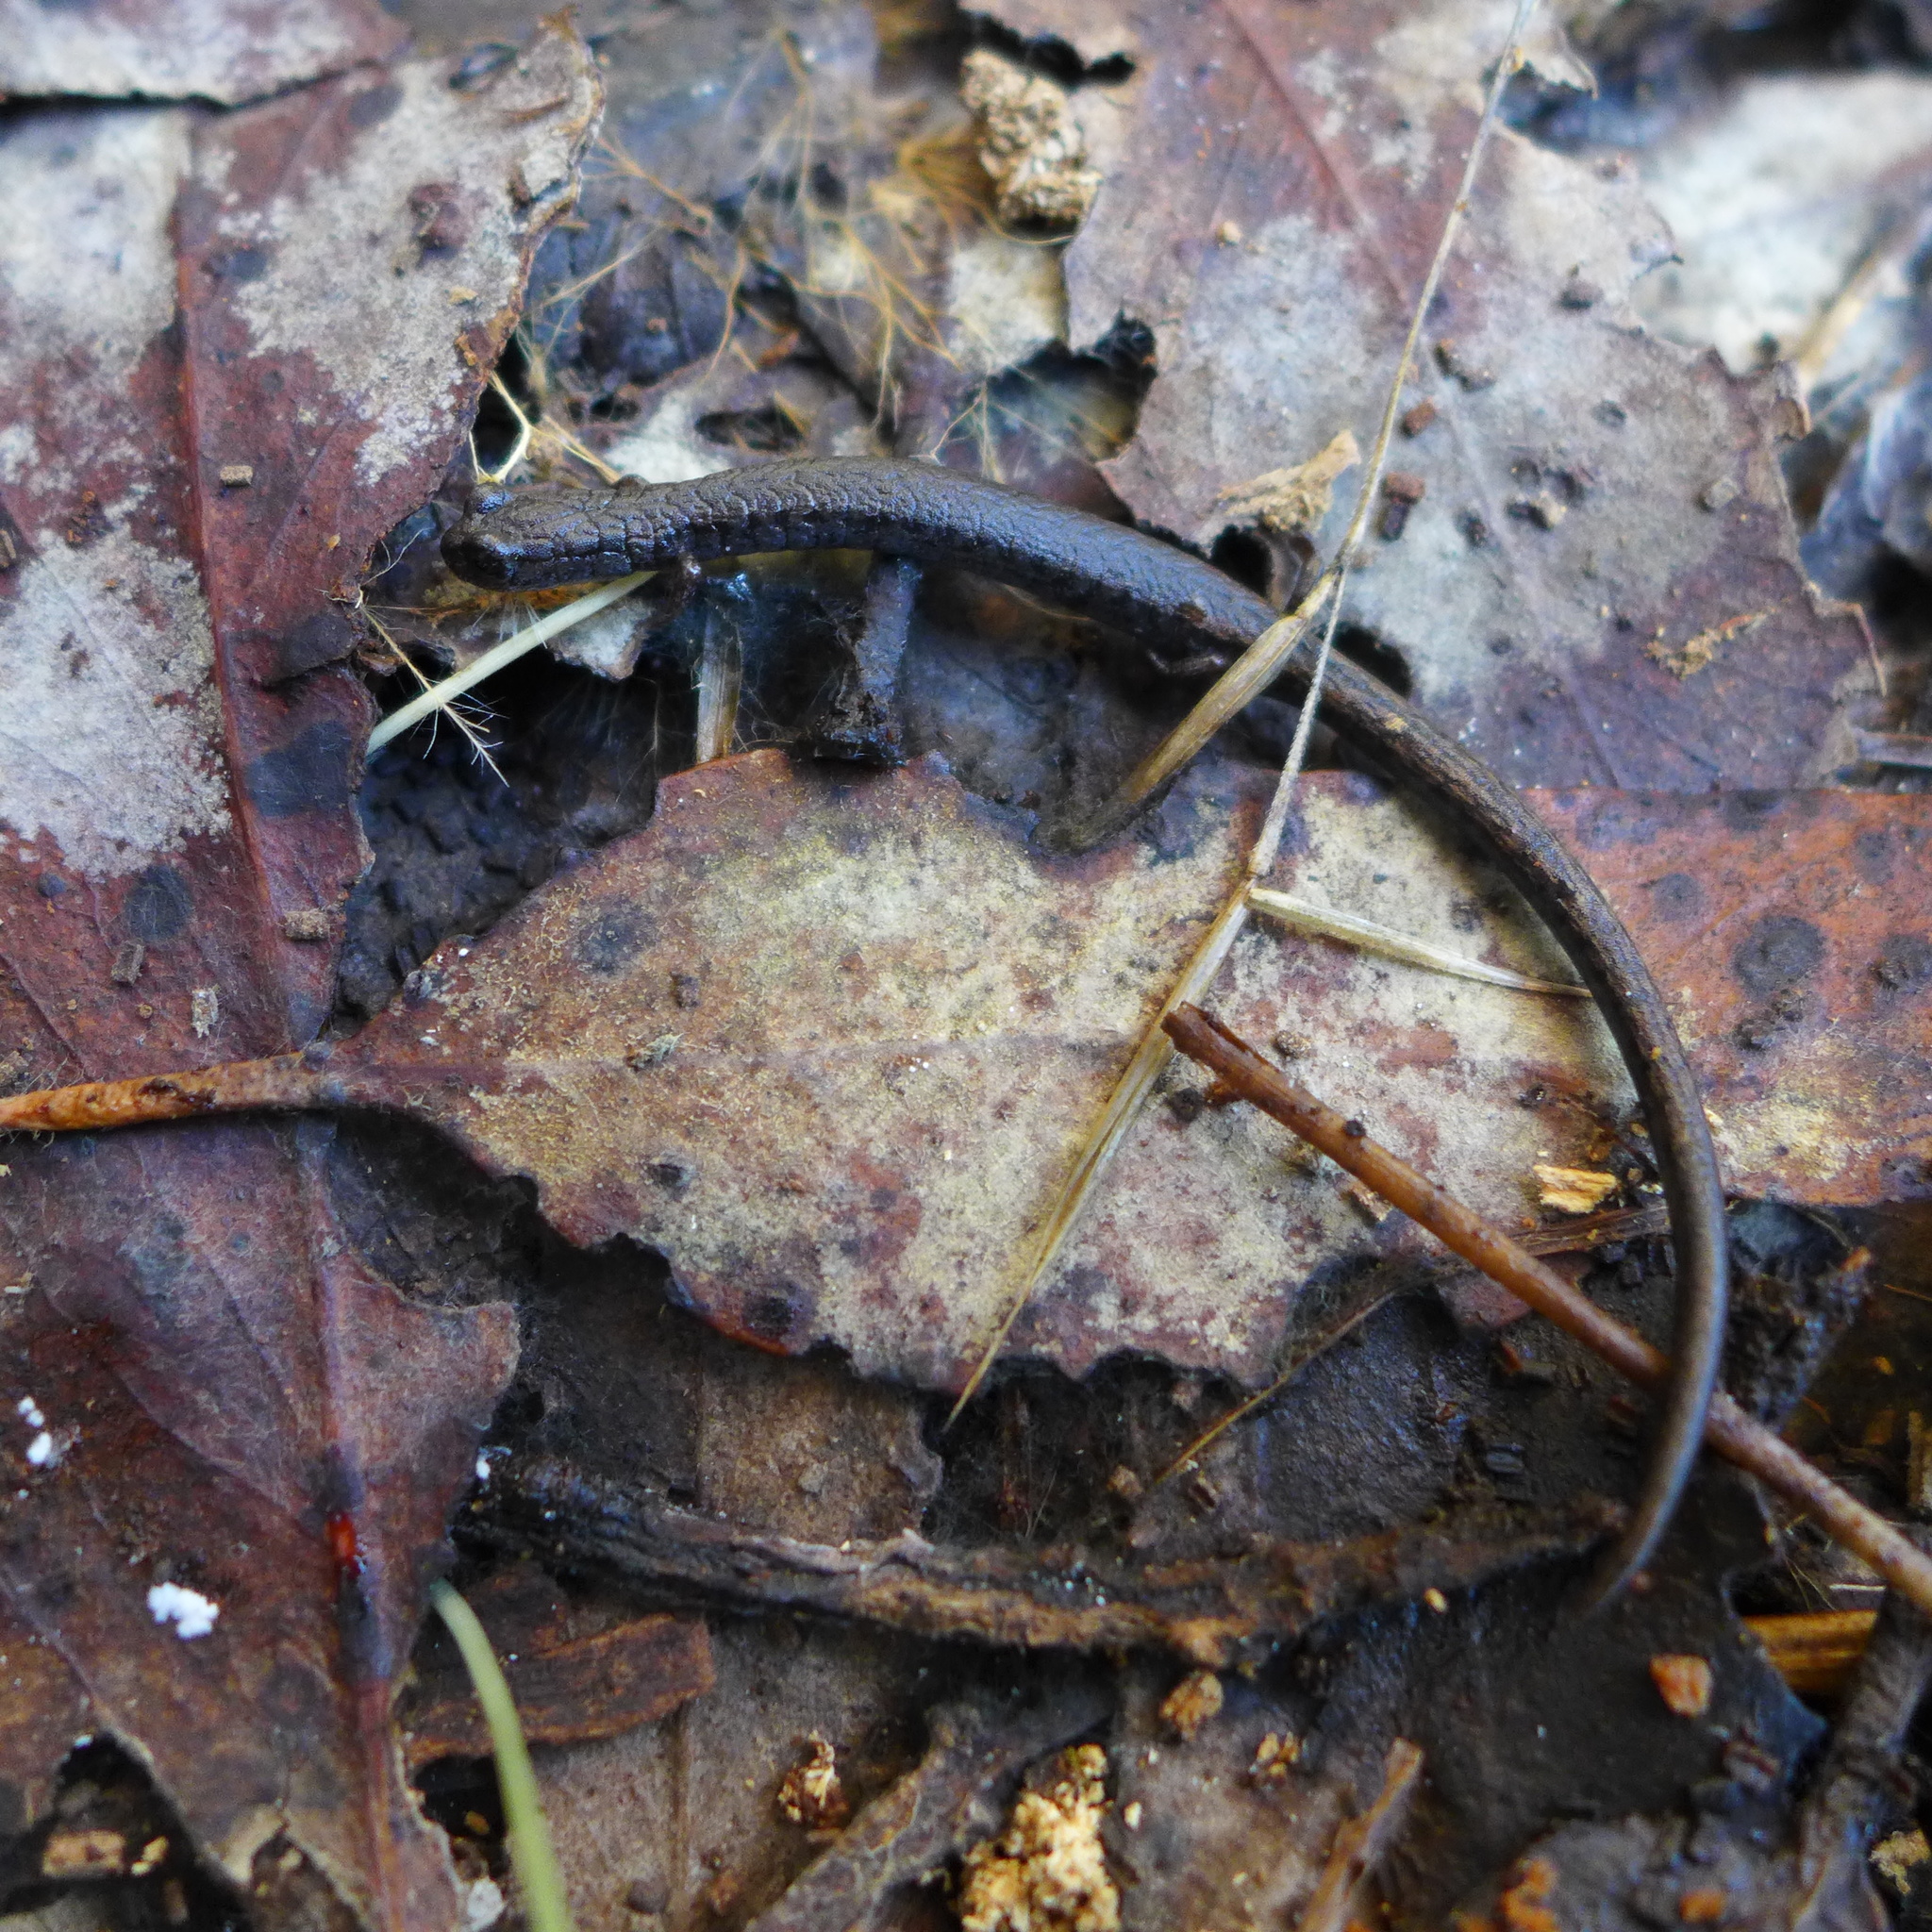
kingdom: Animalia
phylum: Chordata
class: Amphibia
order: Caudata
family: Plethodontidae
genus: Batrachoseps
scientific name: Batrachoseps attenuatus
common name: California slender salamander
